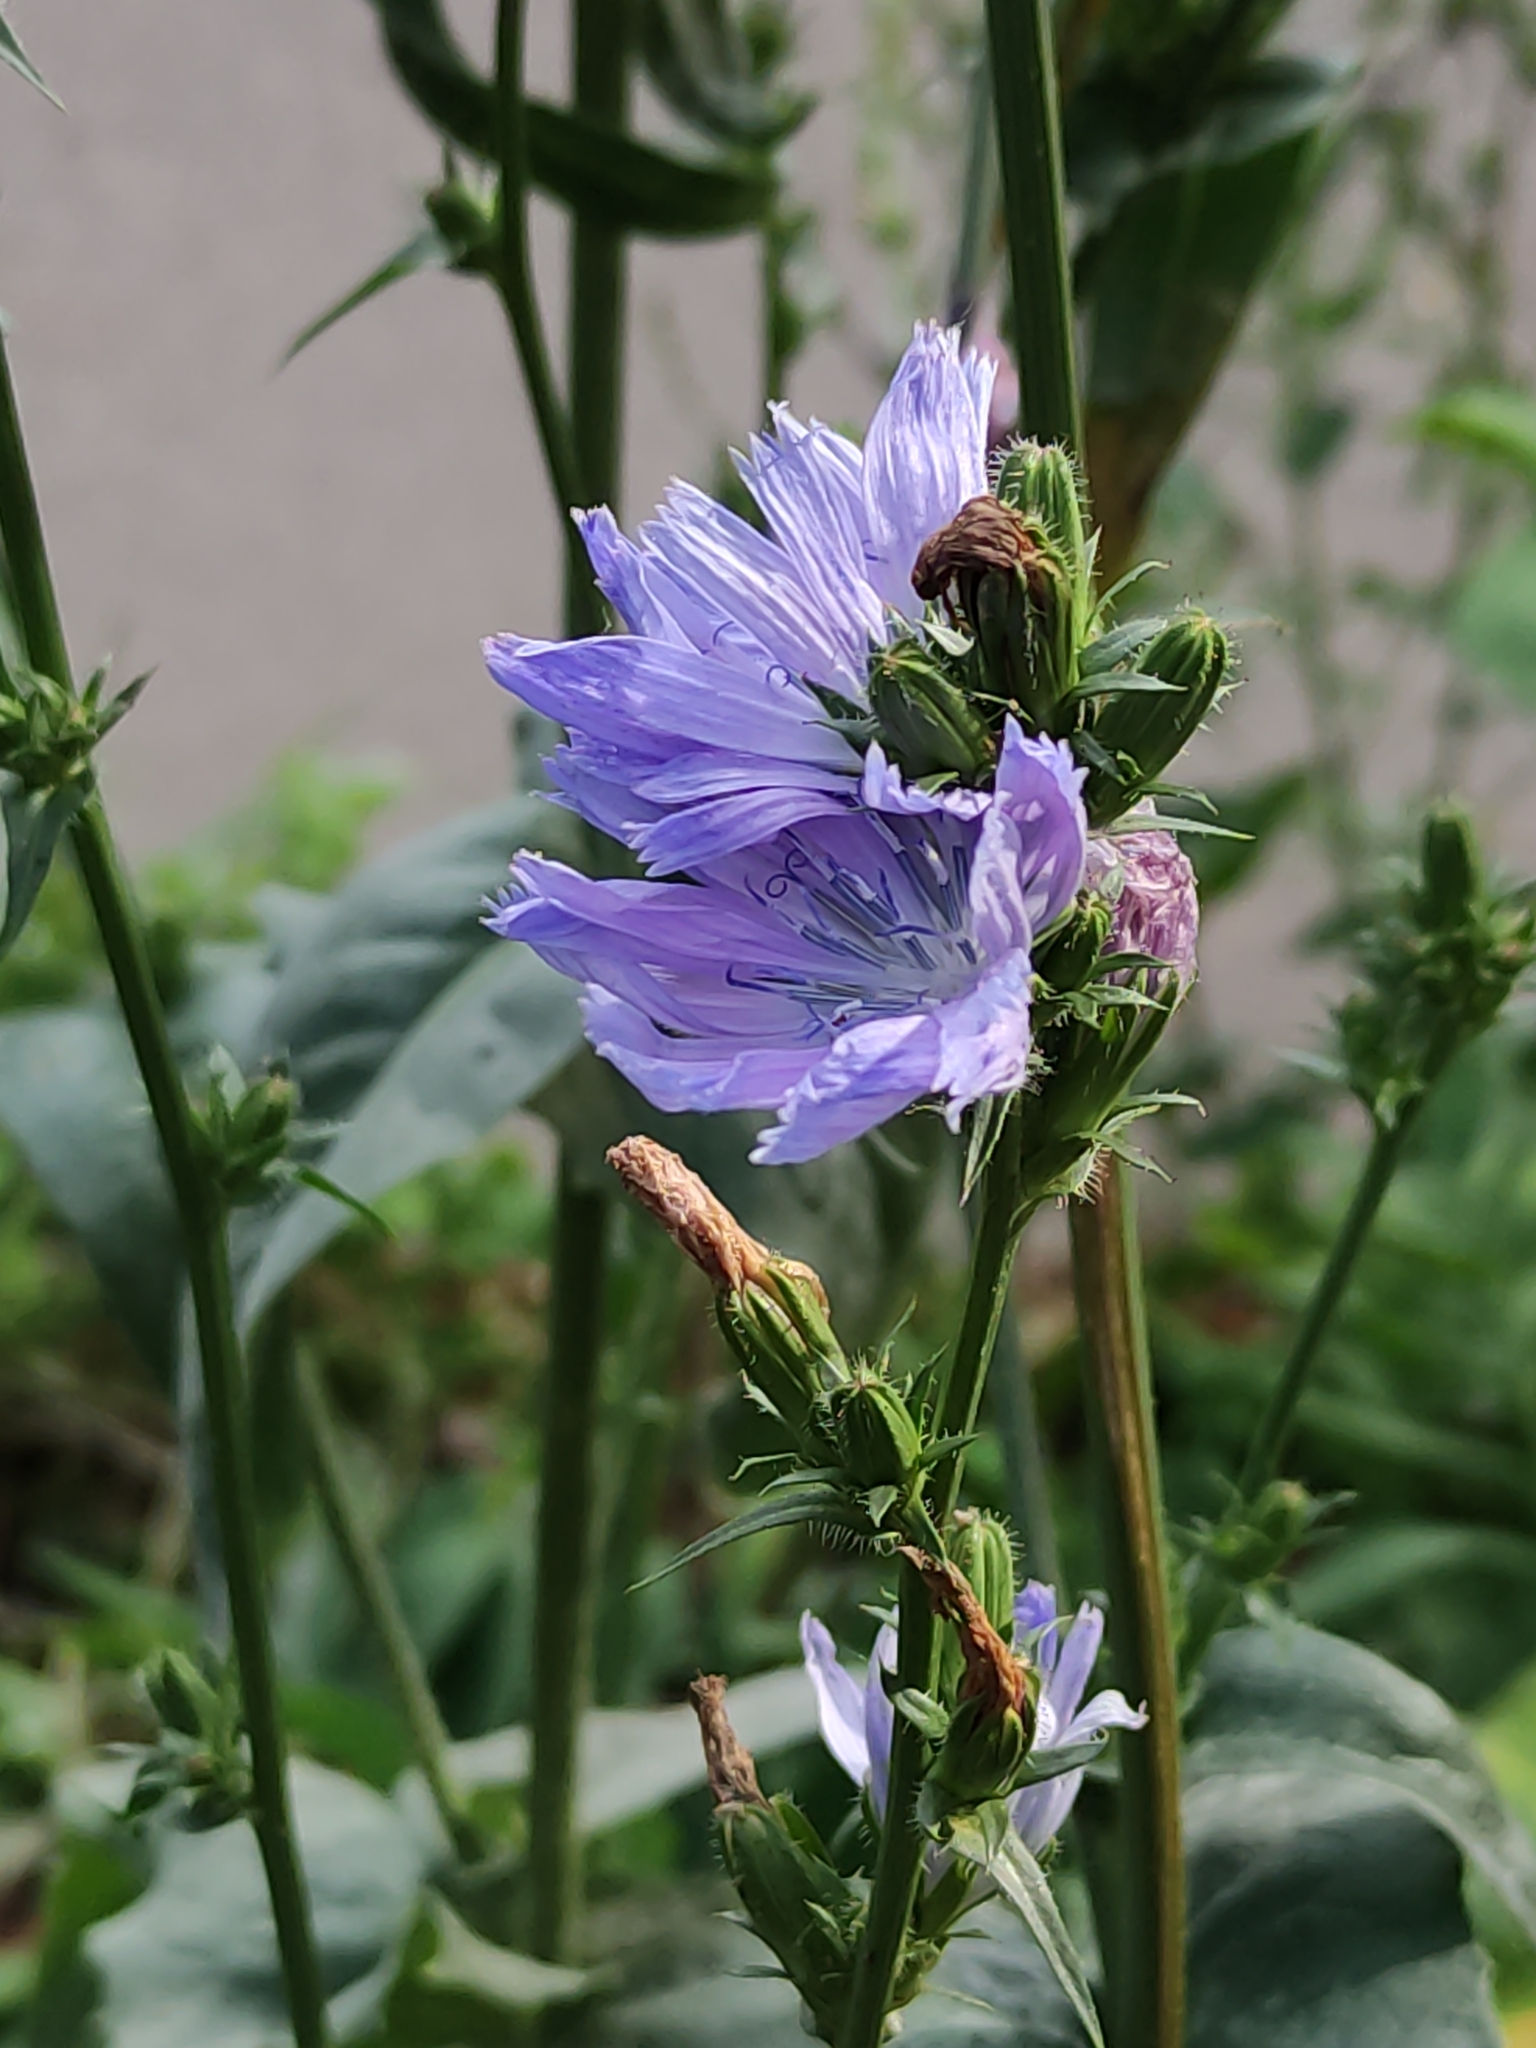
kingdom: Plantae
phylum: Tracheophyta
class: Magnoliopsida
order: Asterales
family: Asteraceae
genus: Cichorium
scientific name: Cichorium intybus
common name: Chicory
